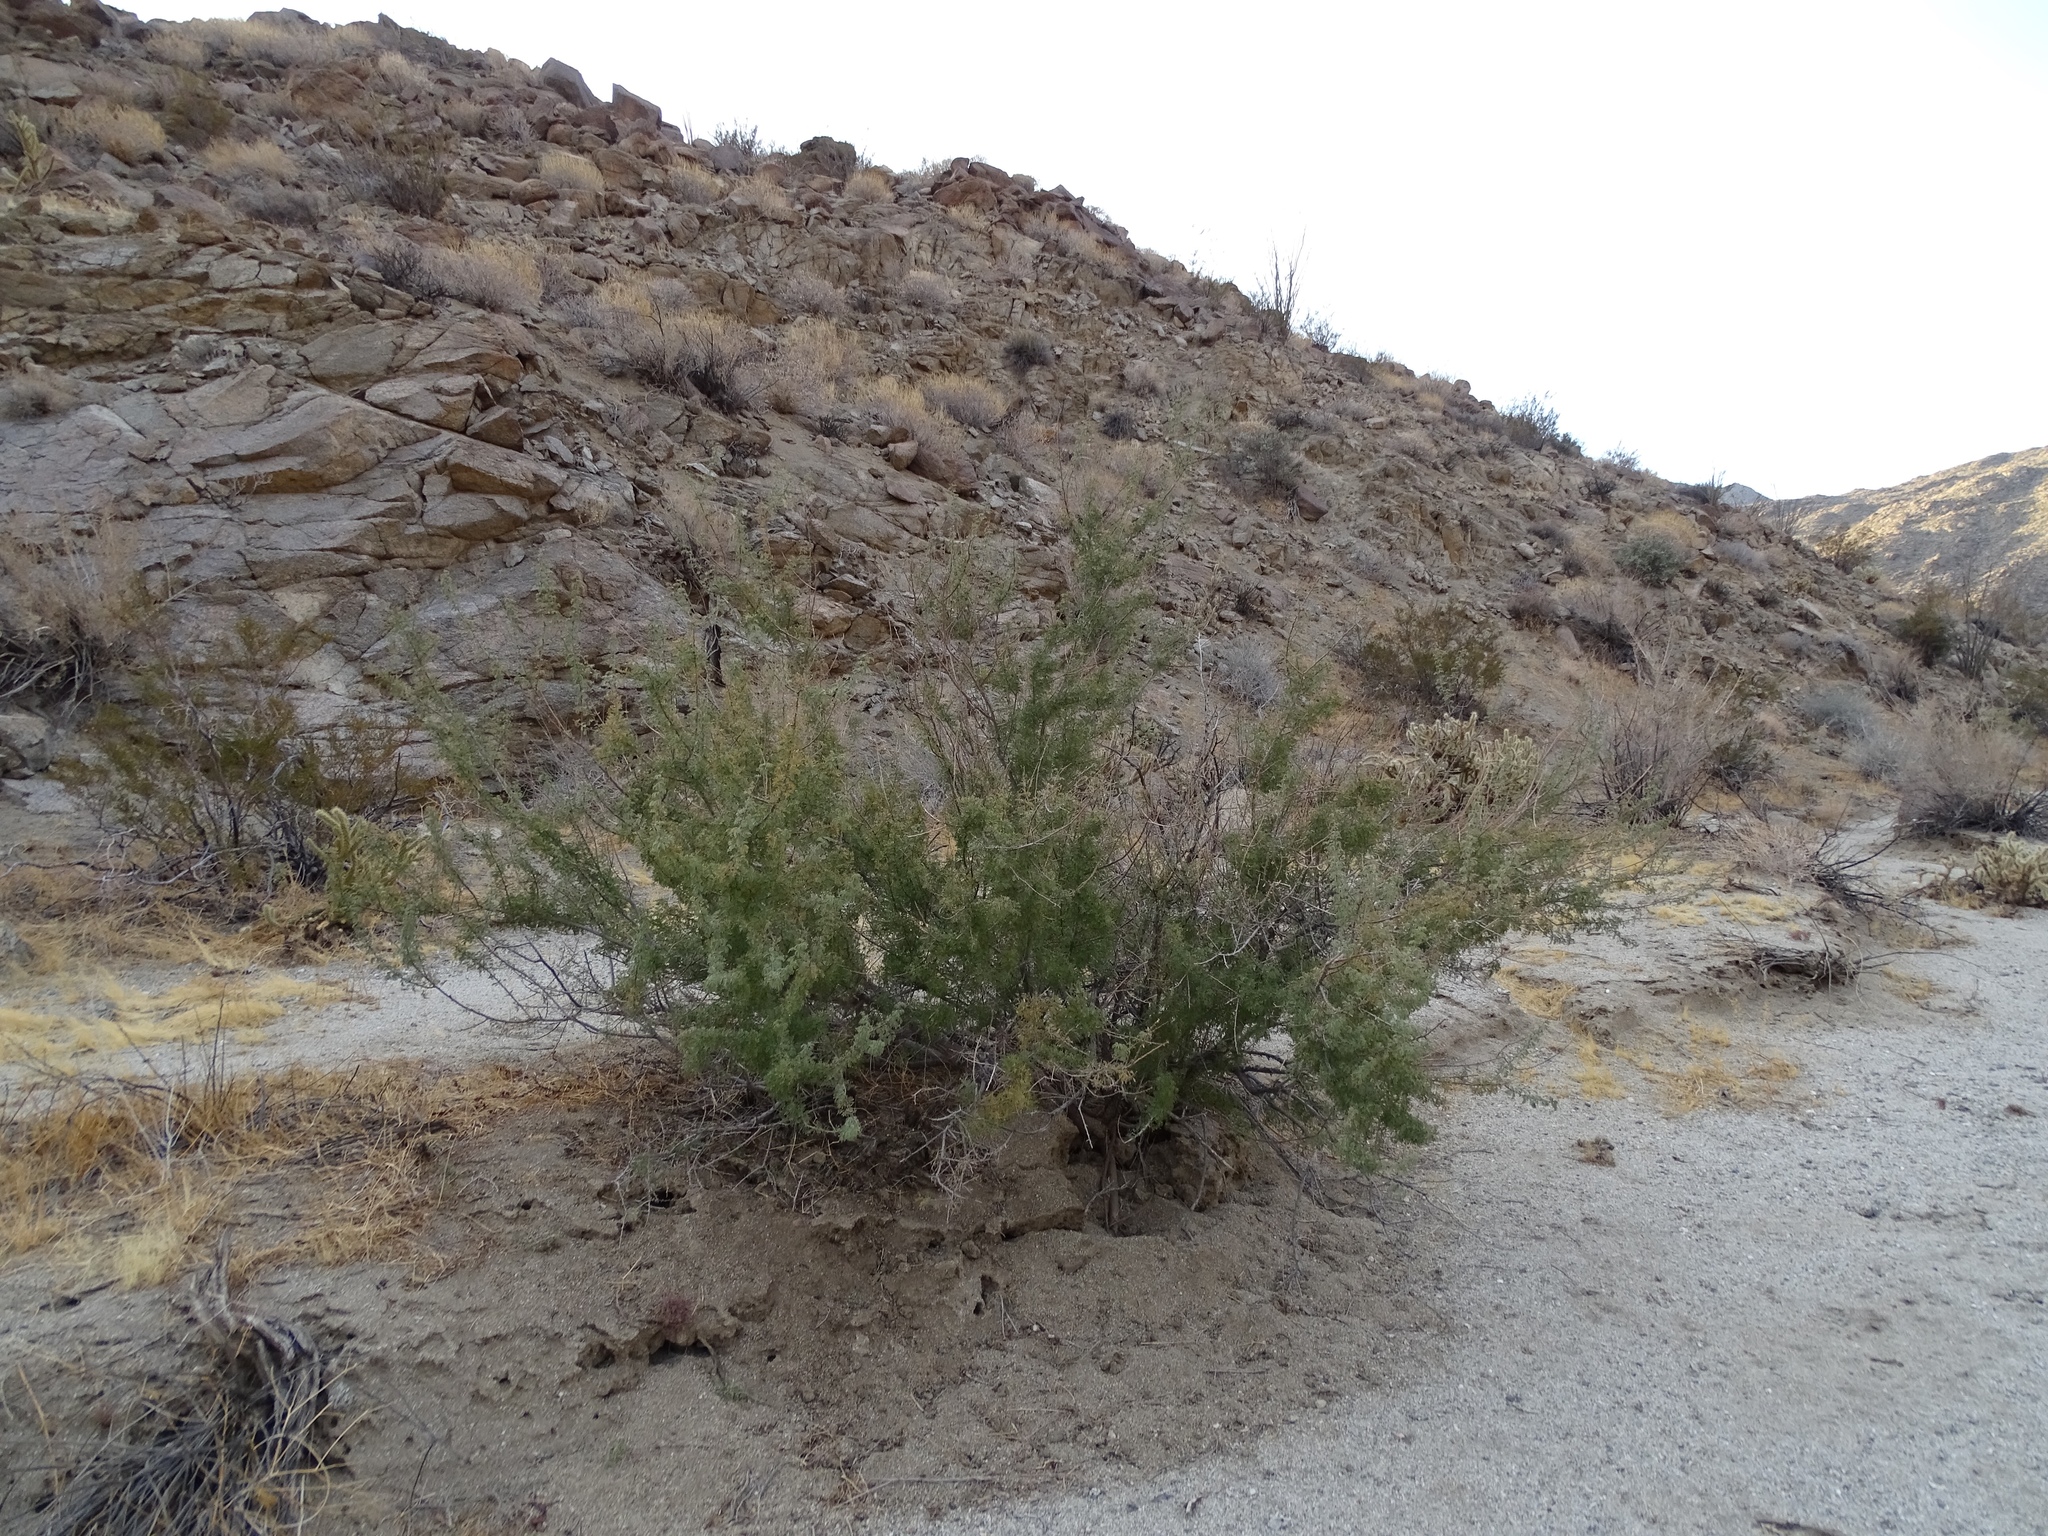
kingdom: Plantae
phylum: Tracheophyta
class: Magnoliopsida
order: Fabales
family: Fabaceae
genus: Senegalia
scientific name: Senegalia greggii
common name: Texas-mimosa
